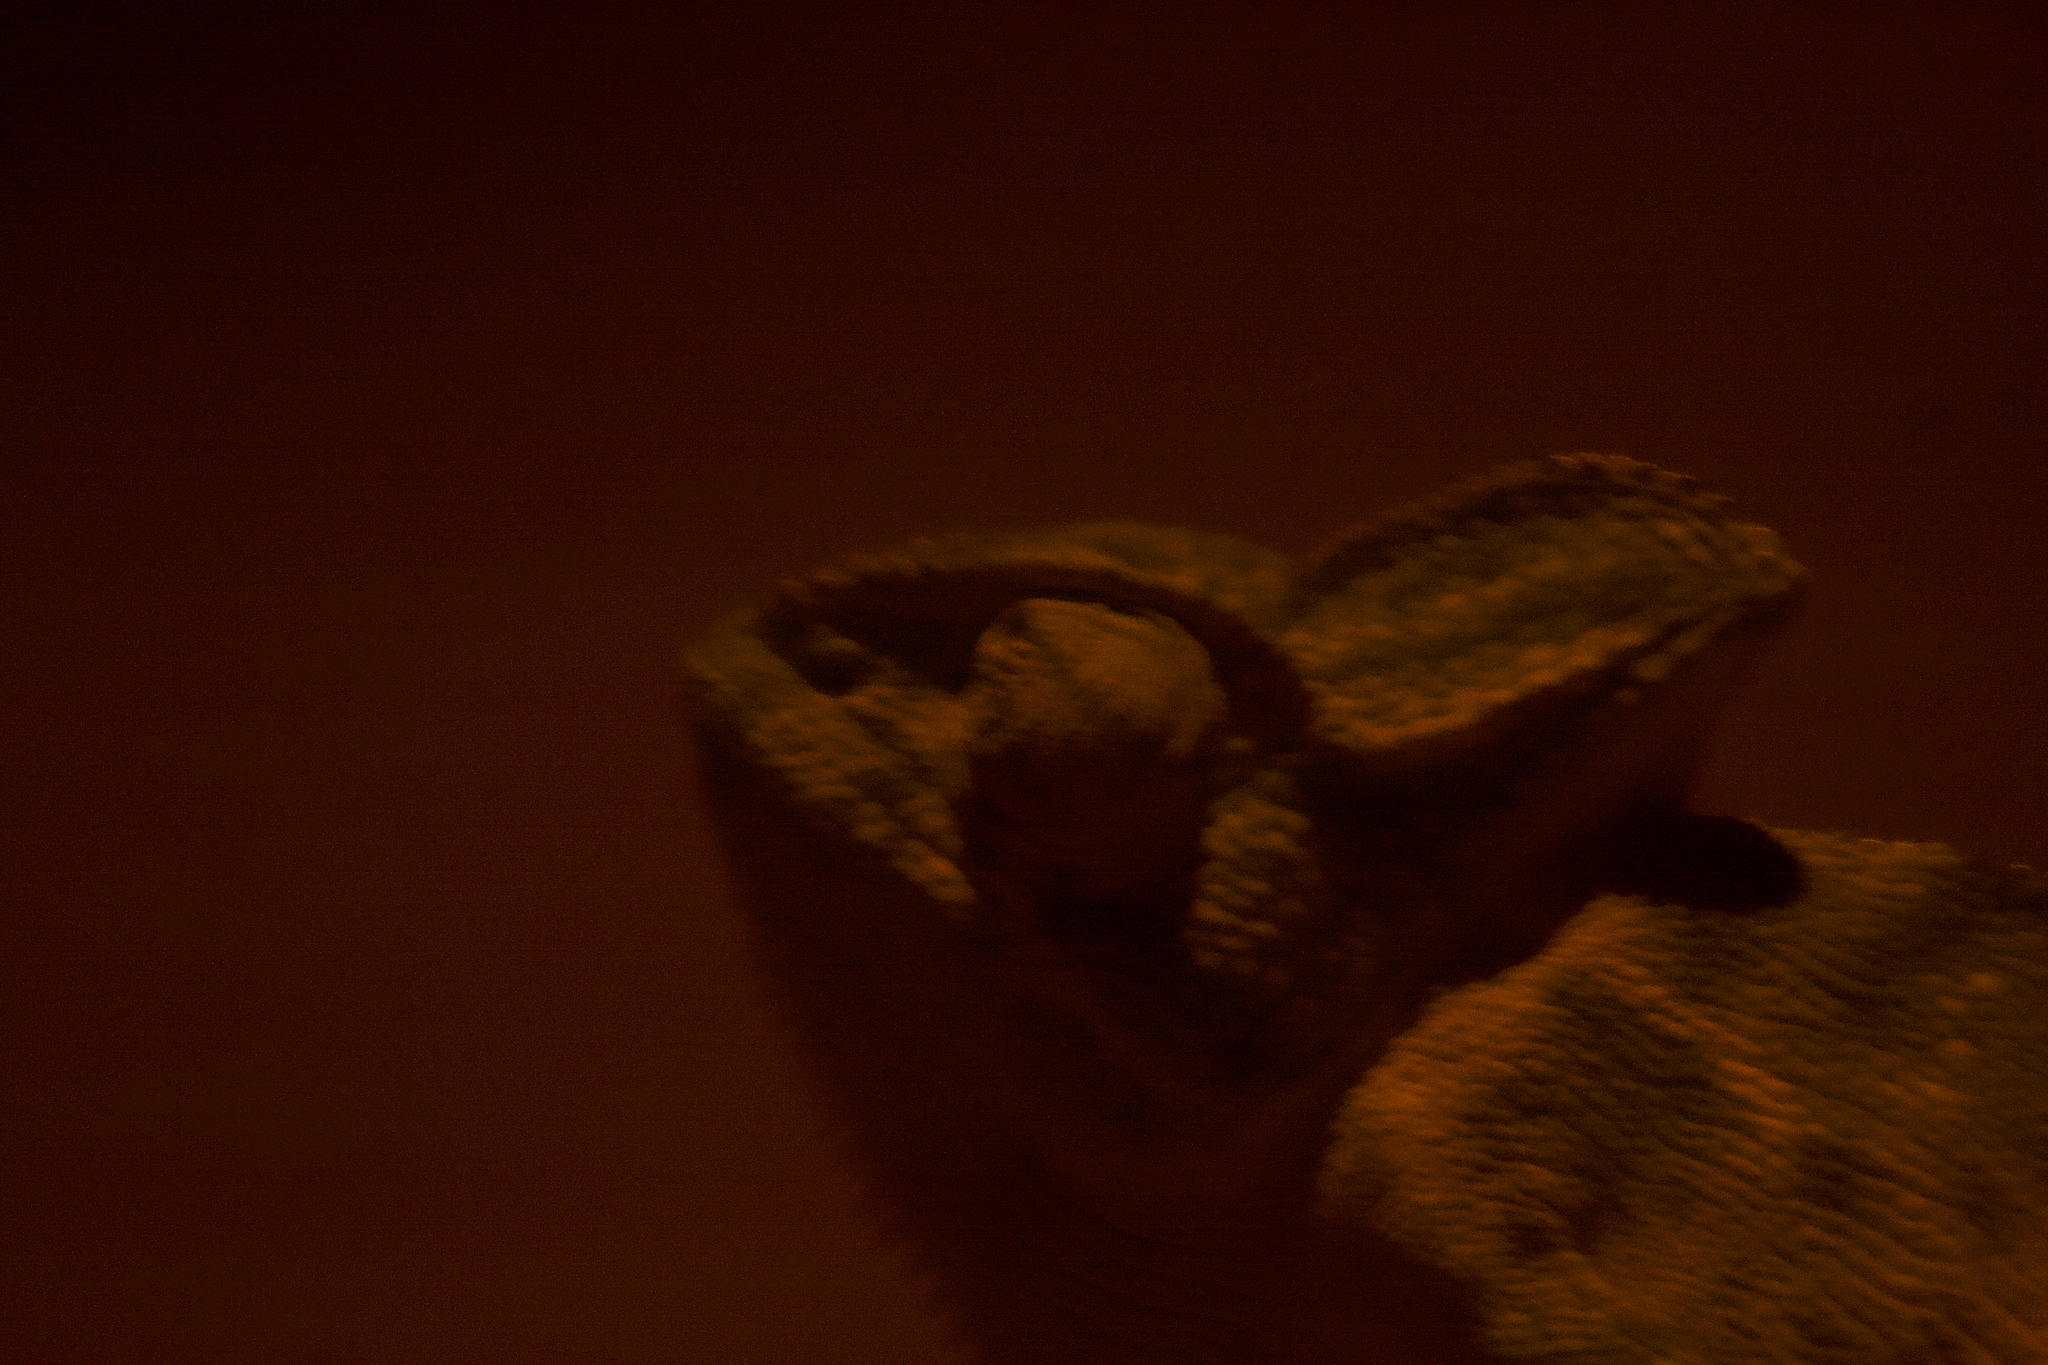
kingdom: Animalia
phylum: Chordata
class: Squamata
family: Chamaeleonidae
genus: Chamaeleo
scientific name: Chamaeleo zeylanicus
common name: Indian chameleon
